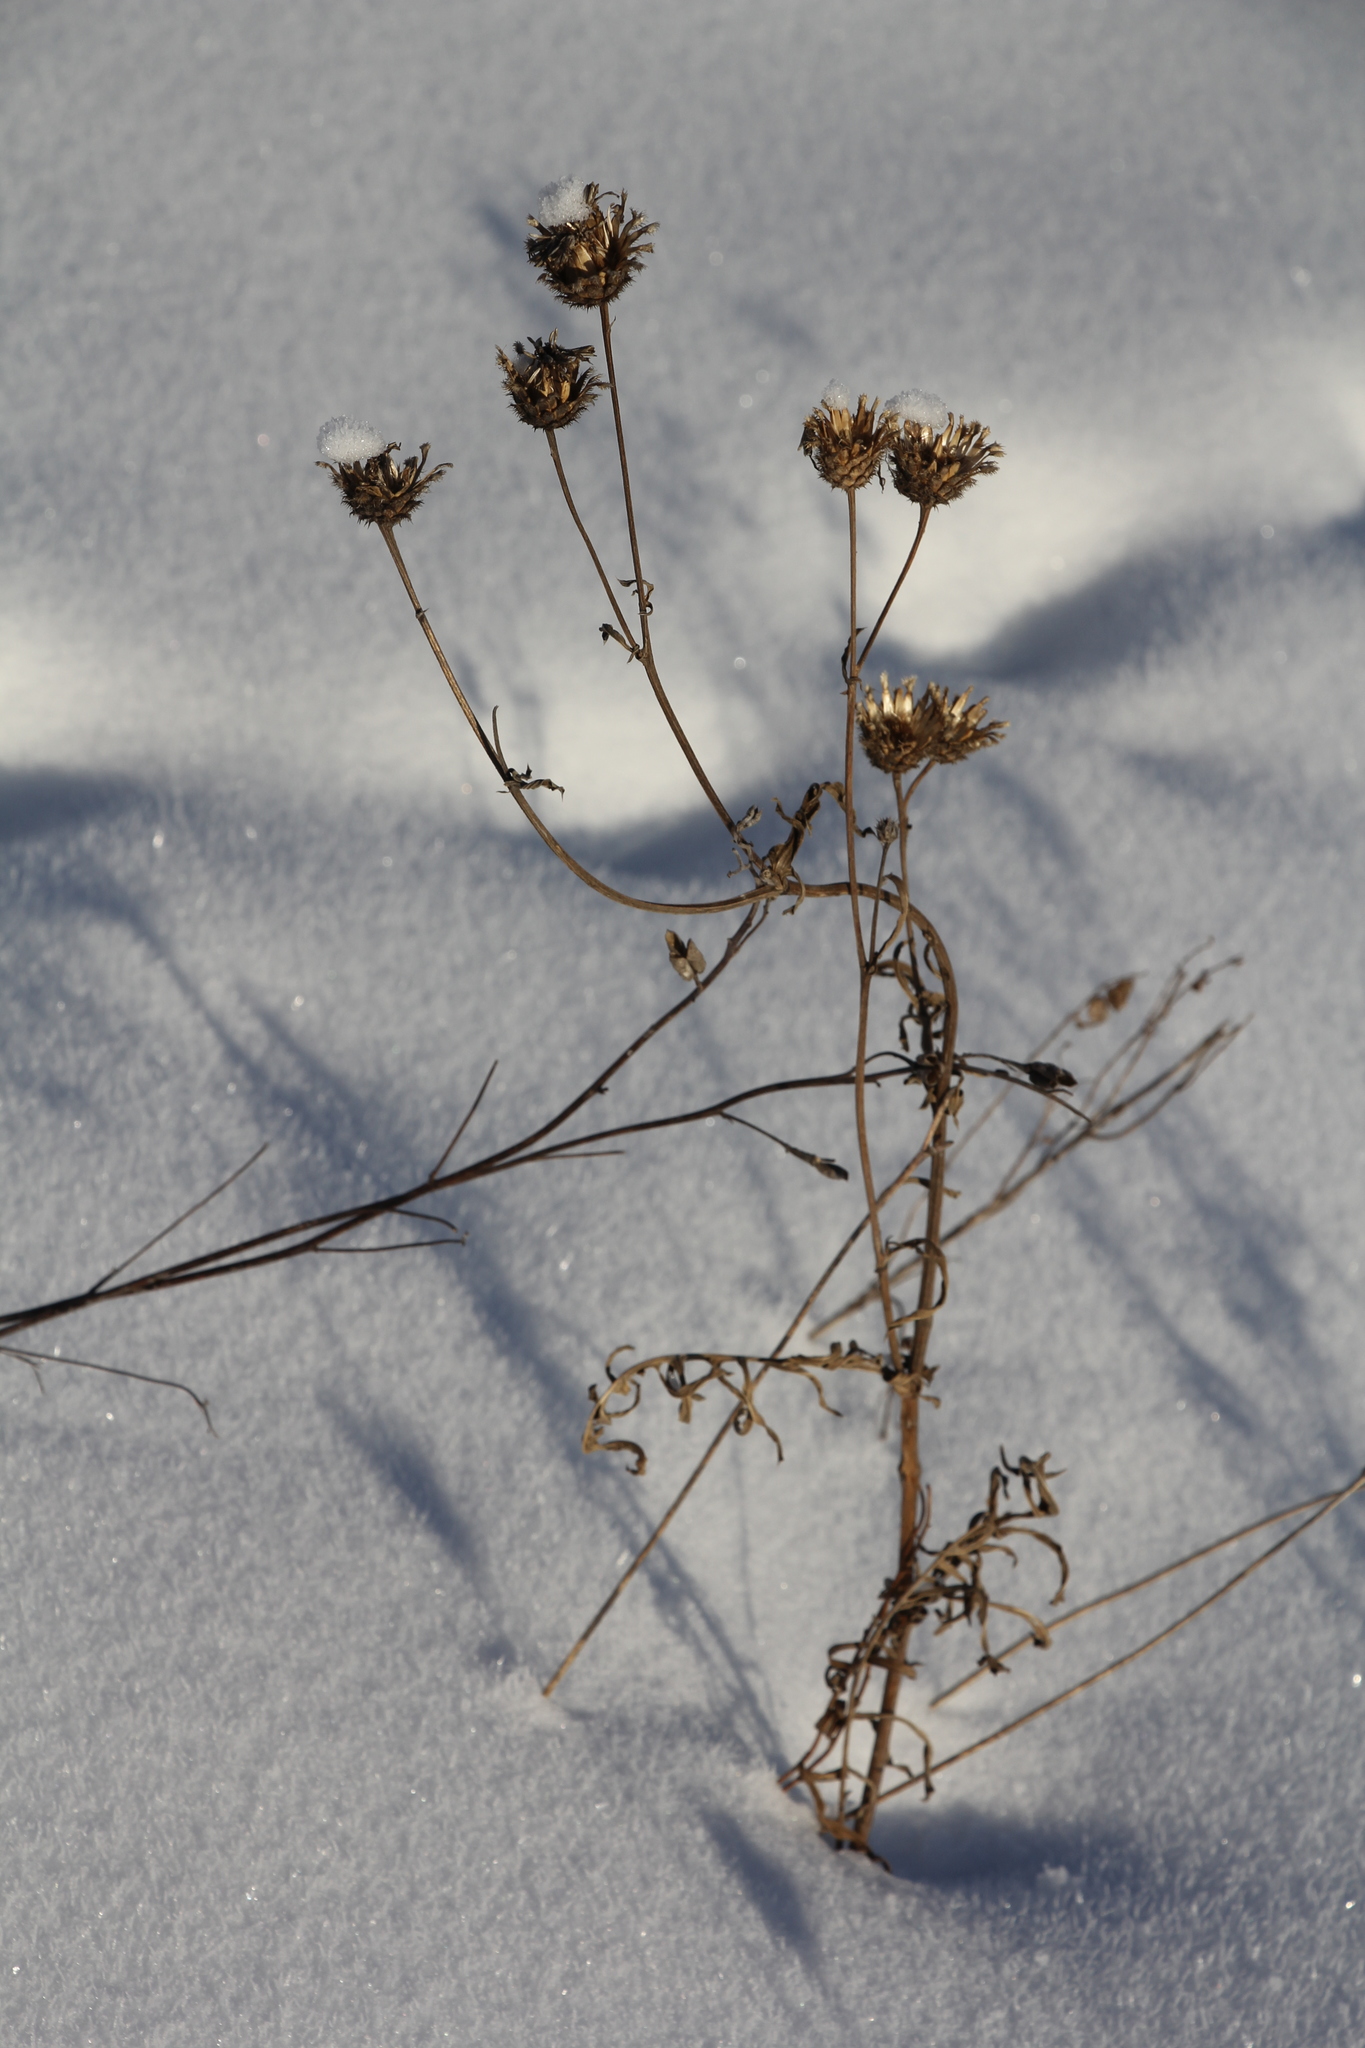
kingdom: Plantae
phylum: Tracheophyta
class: Magnoliopsida
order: Asterales
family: Asteraceae
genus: Centaurea
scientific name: Centaurea scabiosa
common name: Greater knapweed
